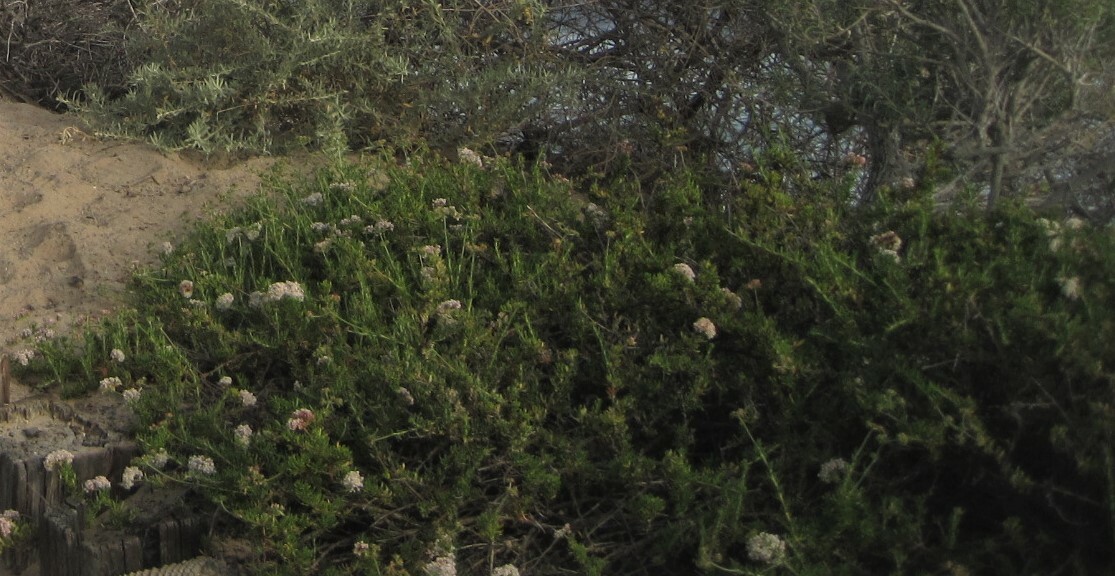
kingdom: Plantae
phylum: Tracheophyta
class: Magnoliopsida
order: Caryophyllales
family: Polygonaceae
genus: Eriogonum
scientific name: Eriogonum fasciculatum
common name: California wild buckwheat
